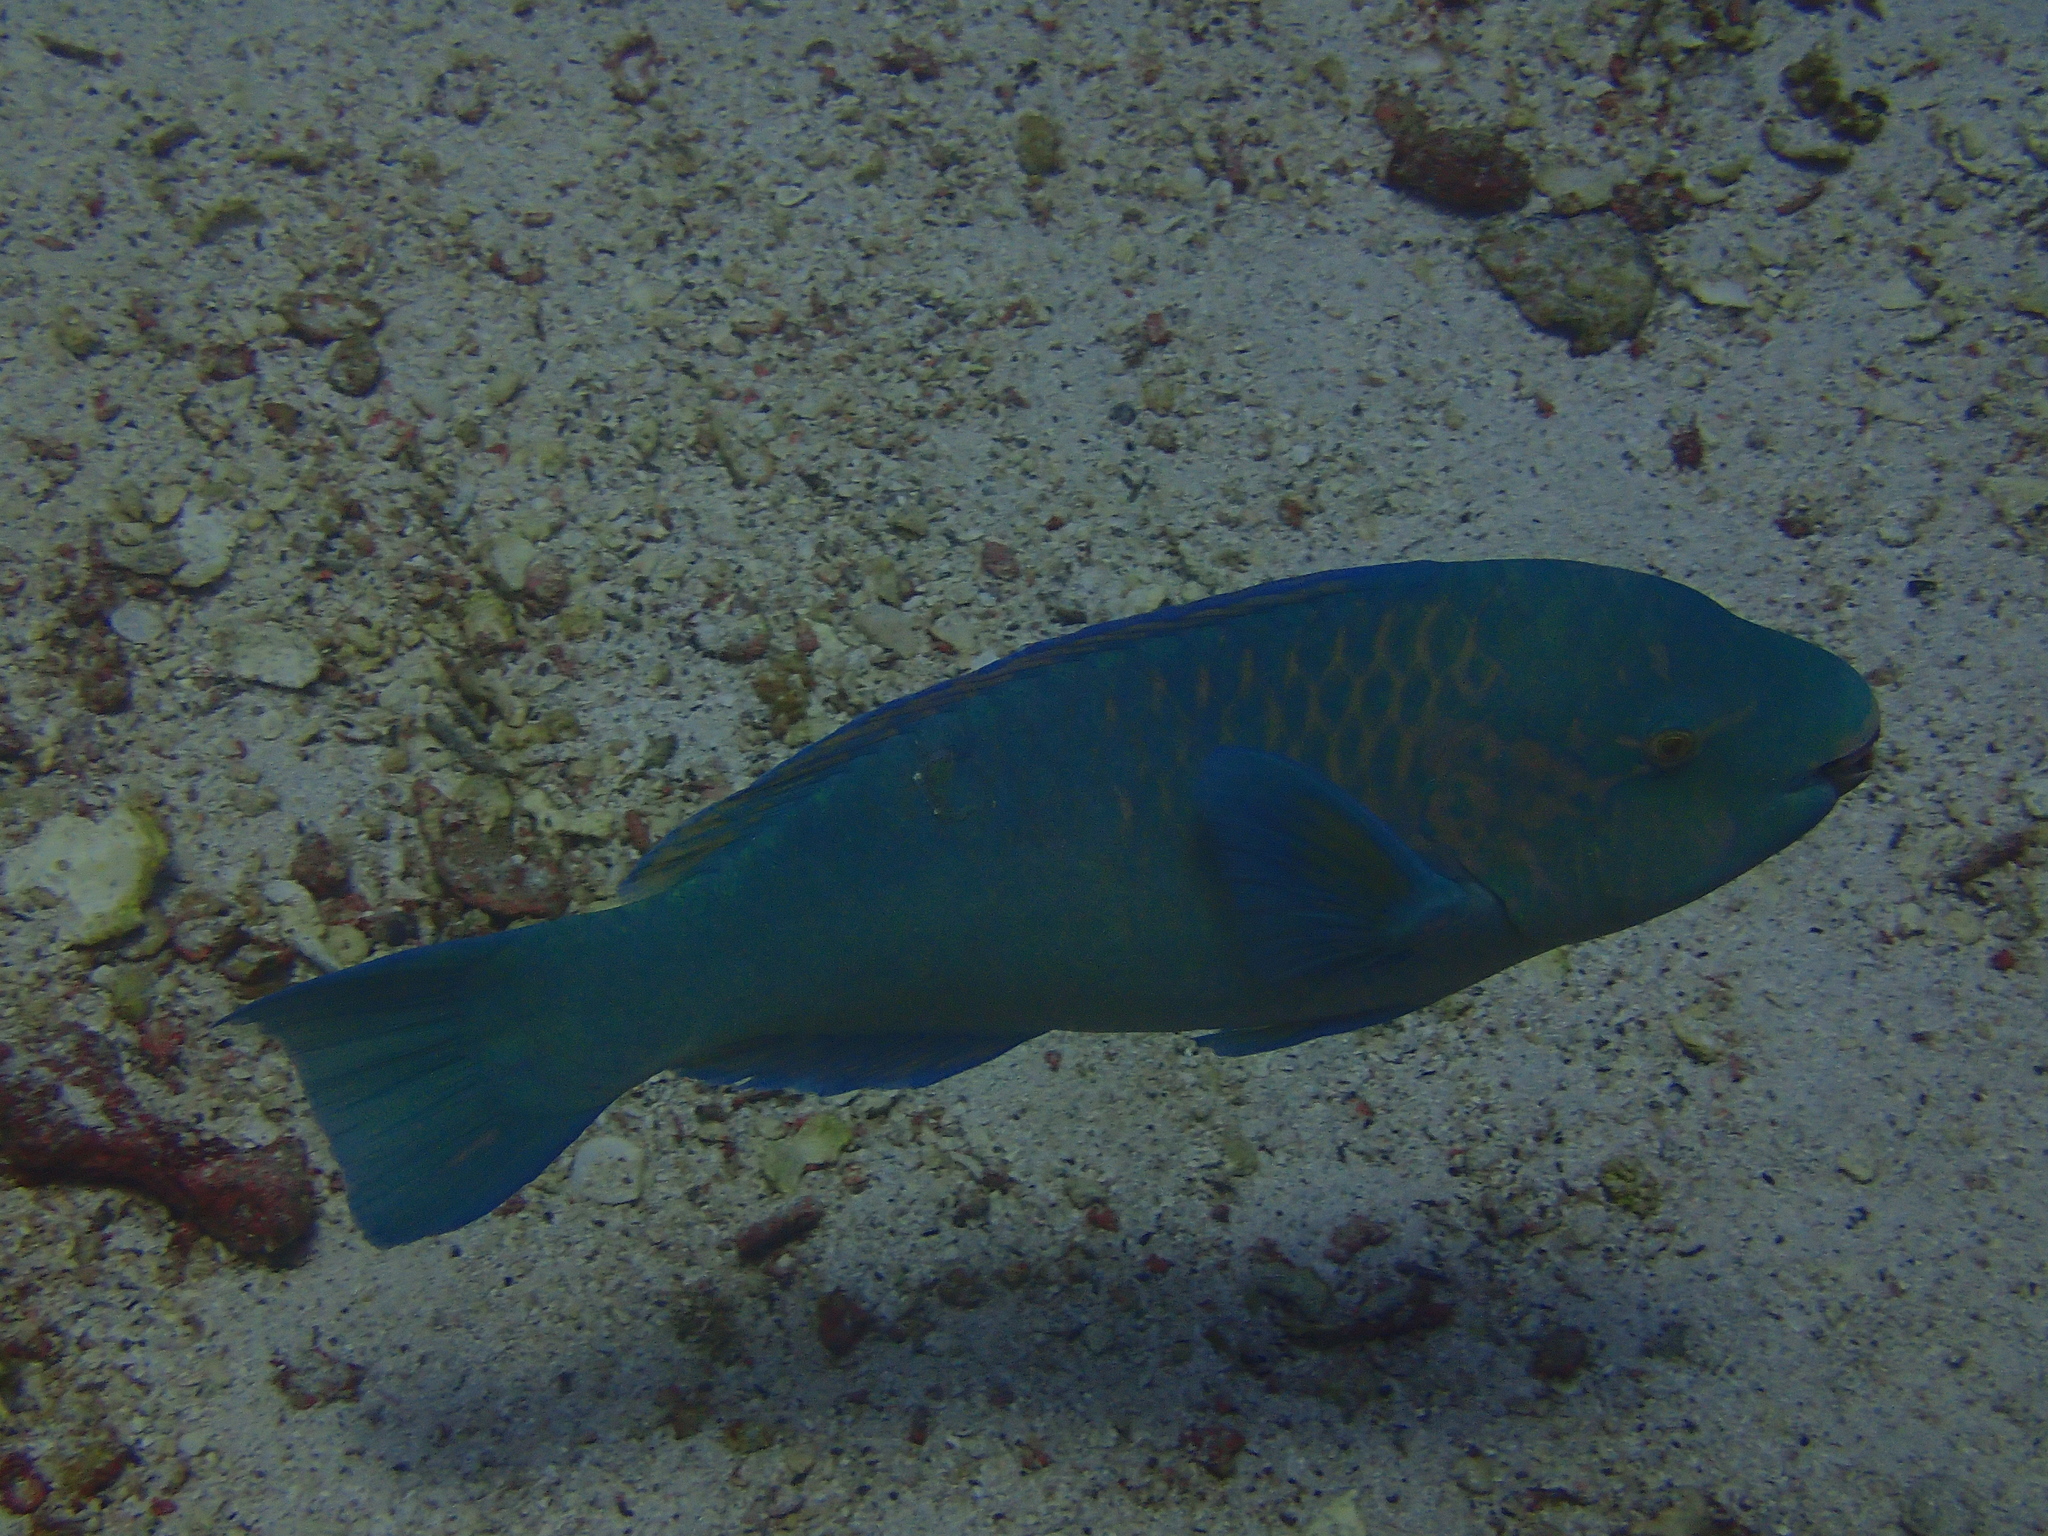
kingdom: Animalia
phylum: Chordata
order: Perciformes
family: Scaridae
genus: Scarus
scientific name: Scarus compressus
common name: Azure parrotfish
